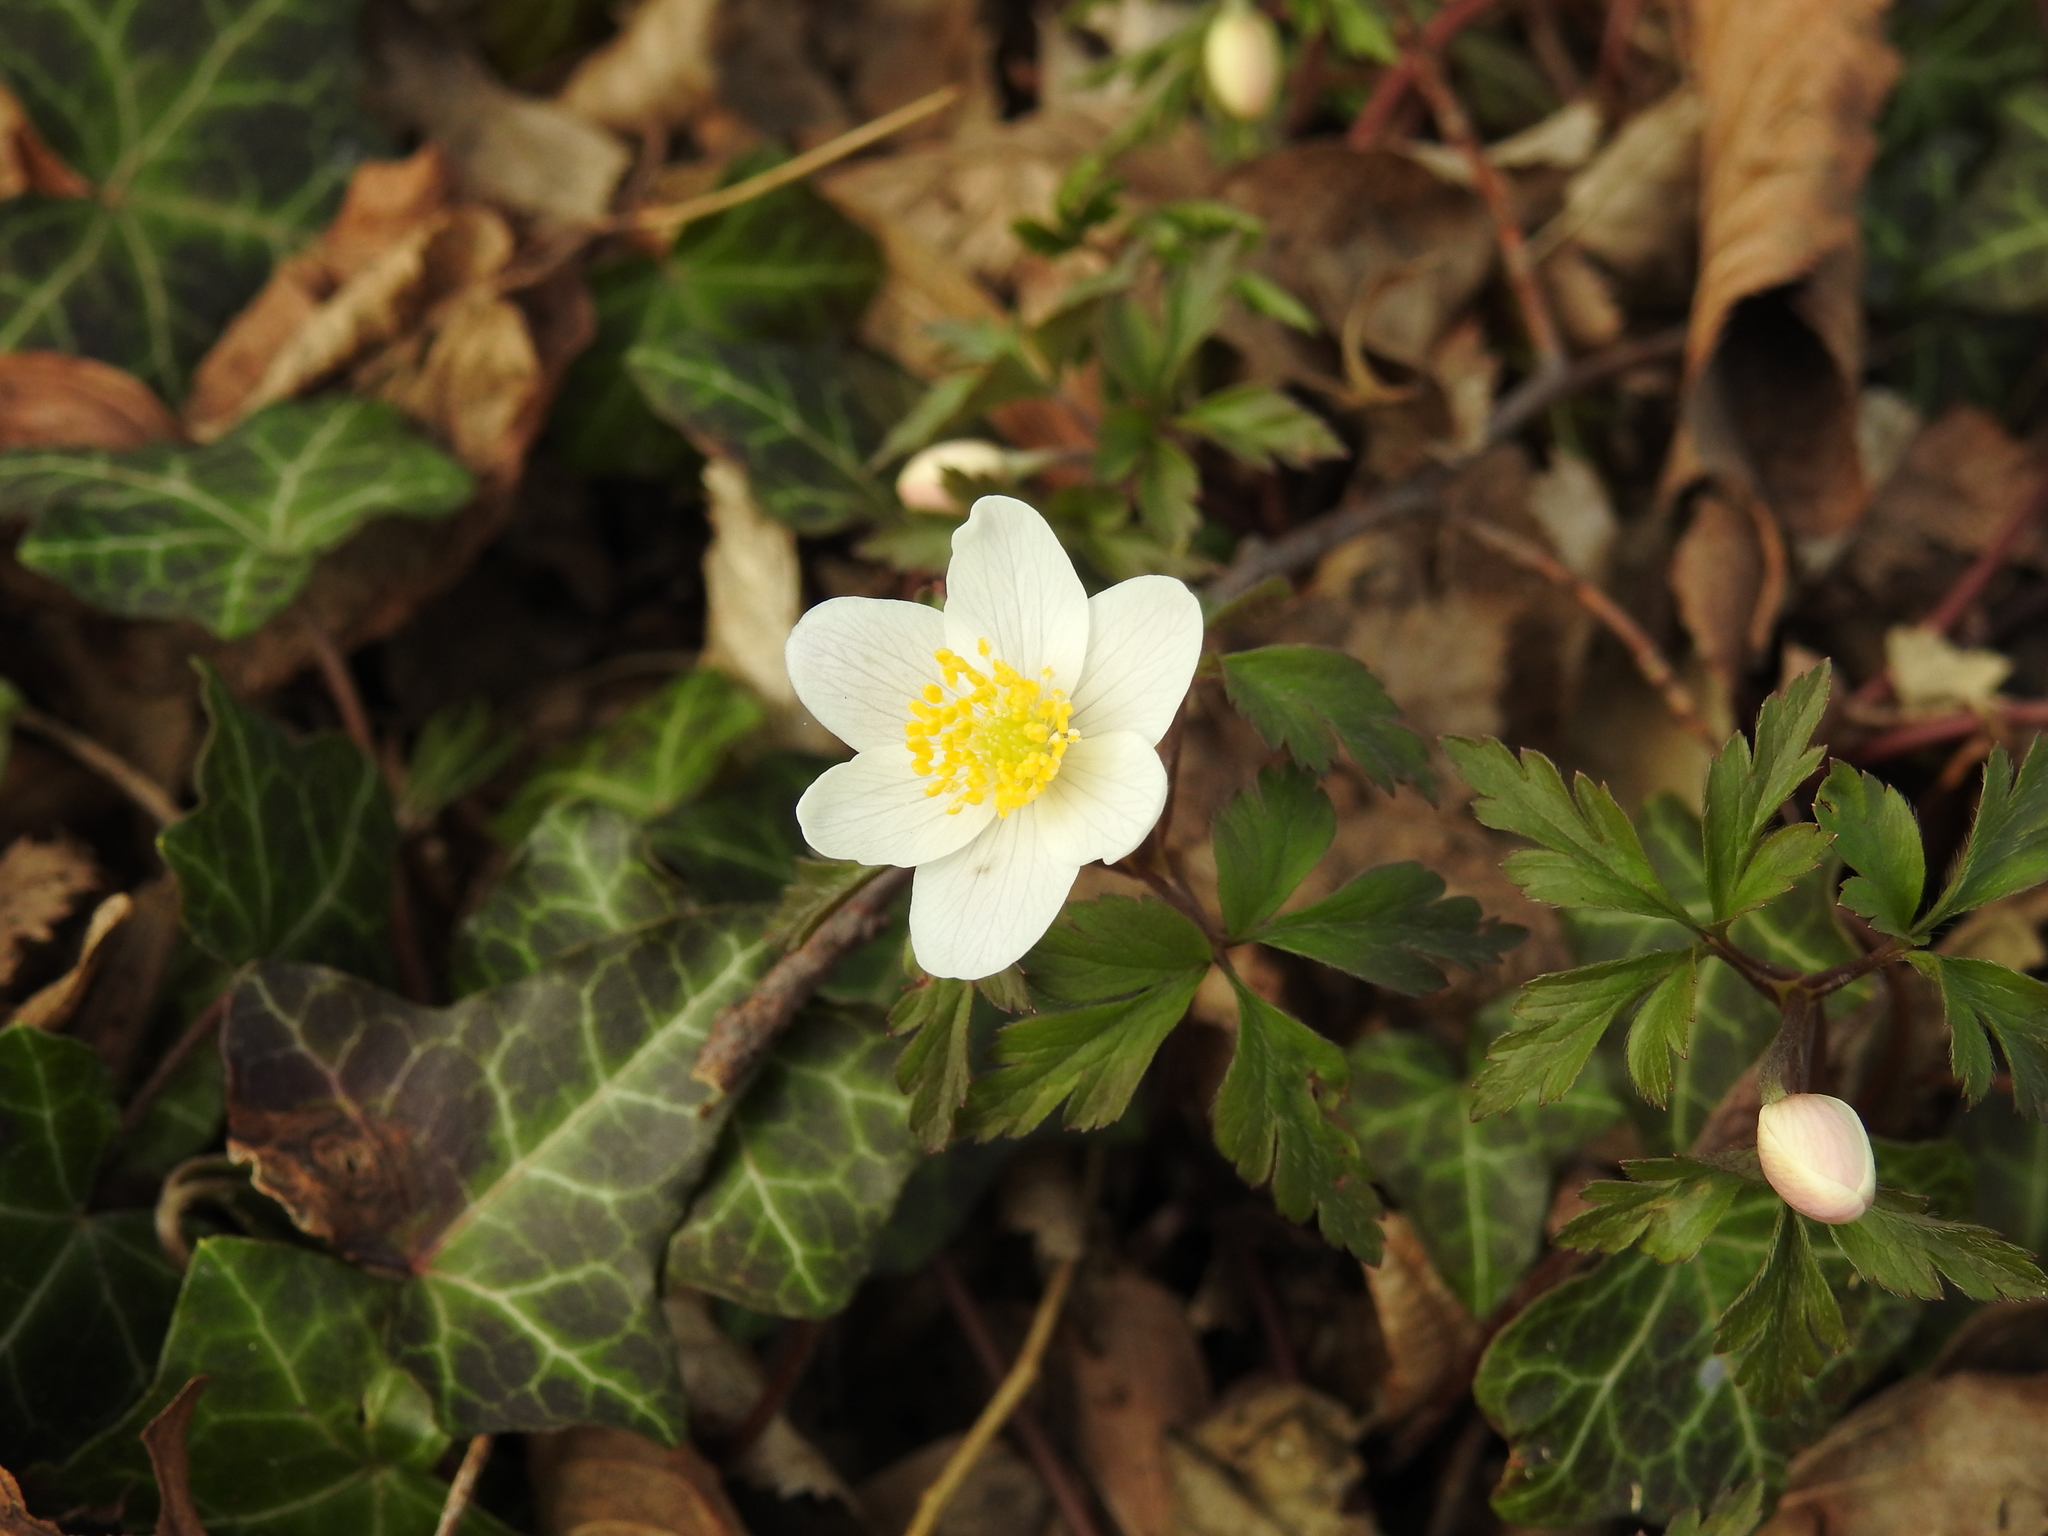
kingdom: Plantae
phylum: Tracheophyta
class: Magnoliopsida
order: Ranunculales
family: Ranunculaceae
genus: Anemone
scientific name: Anemone nemorosa
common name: Wood anemone
